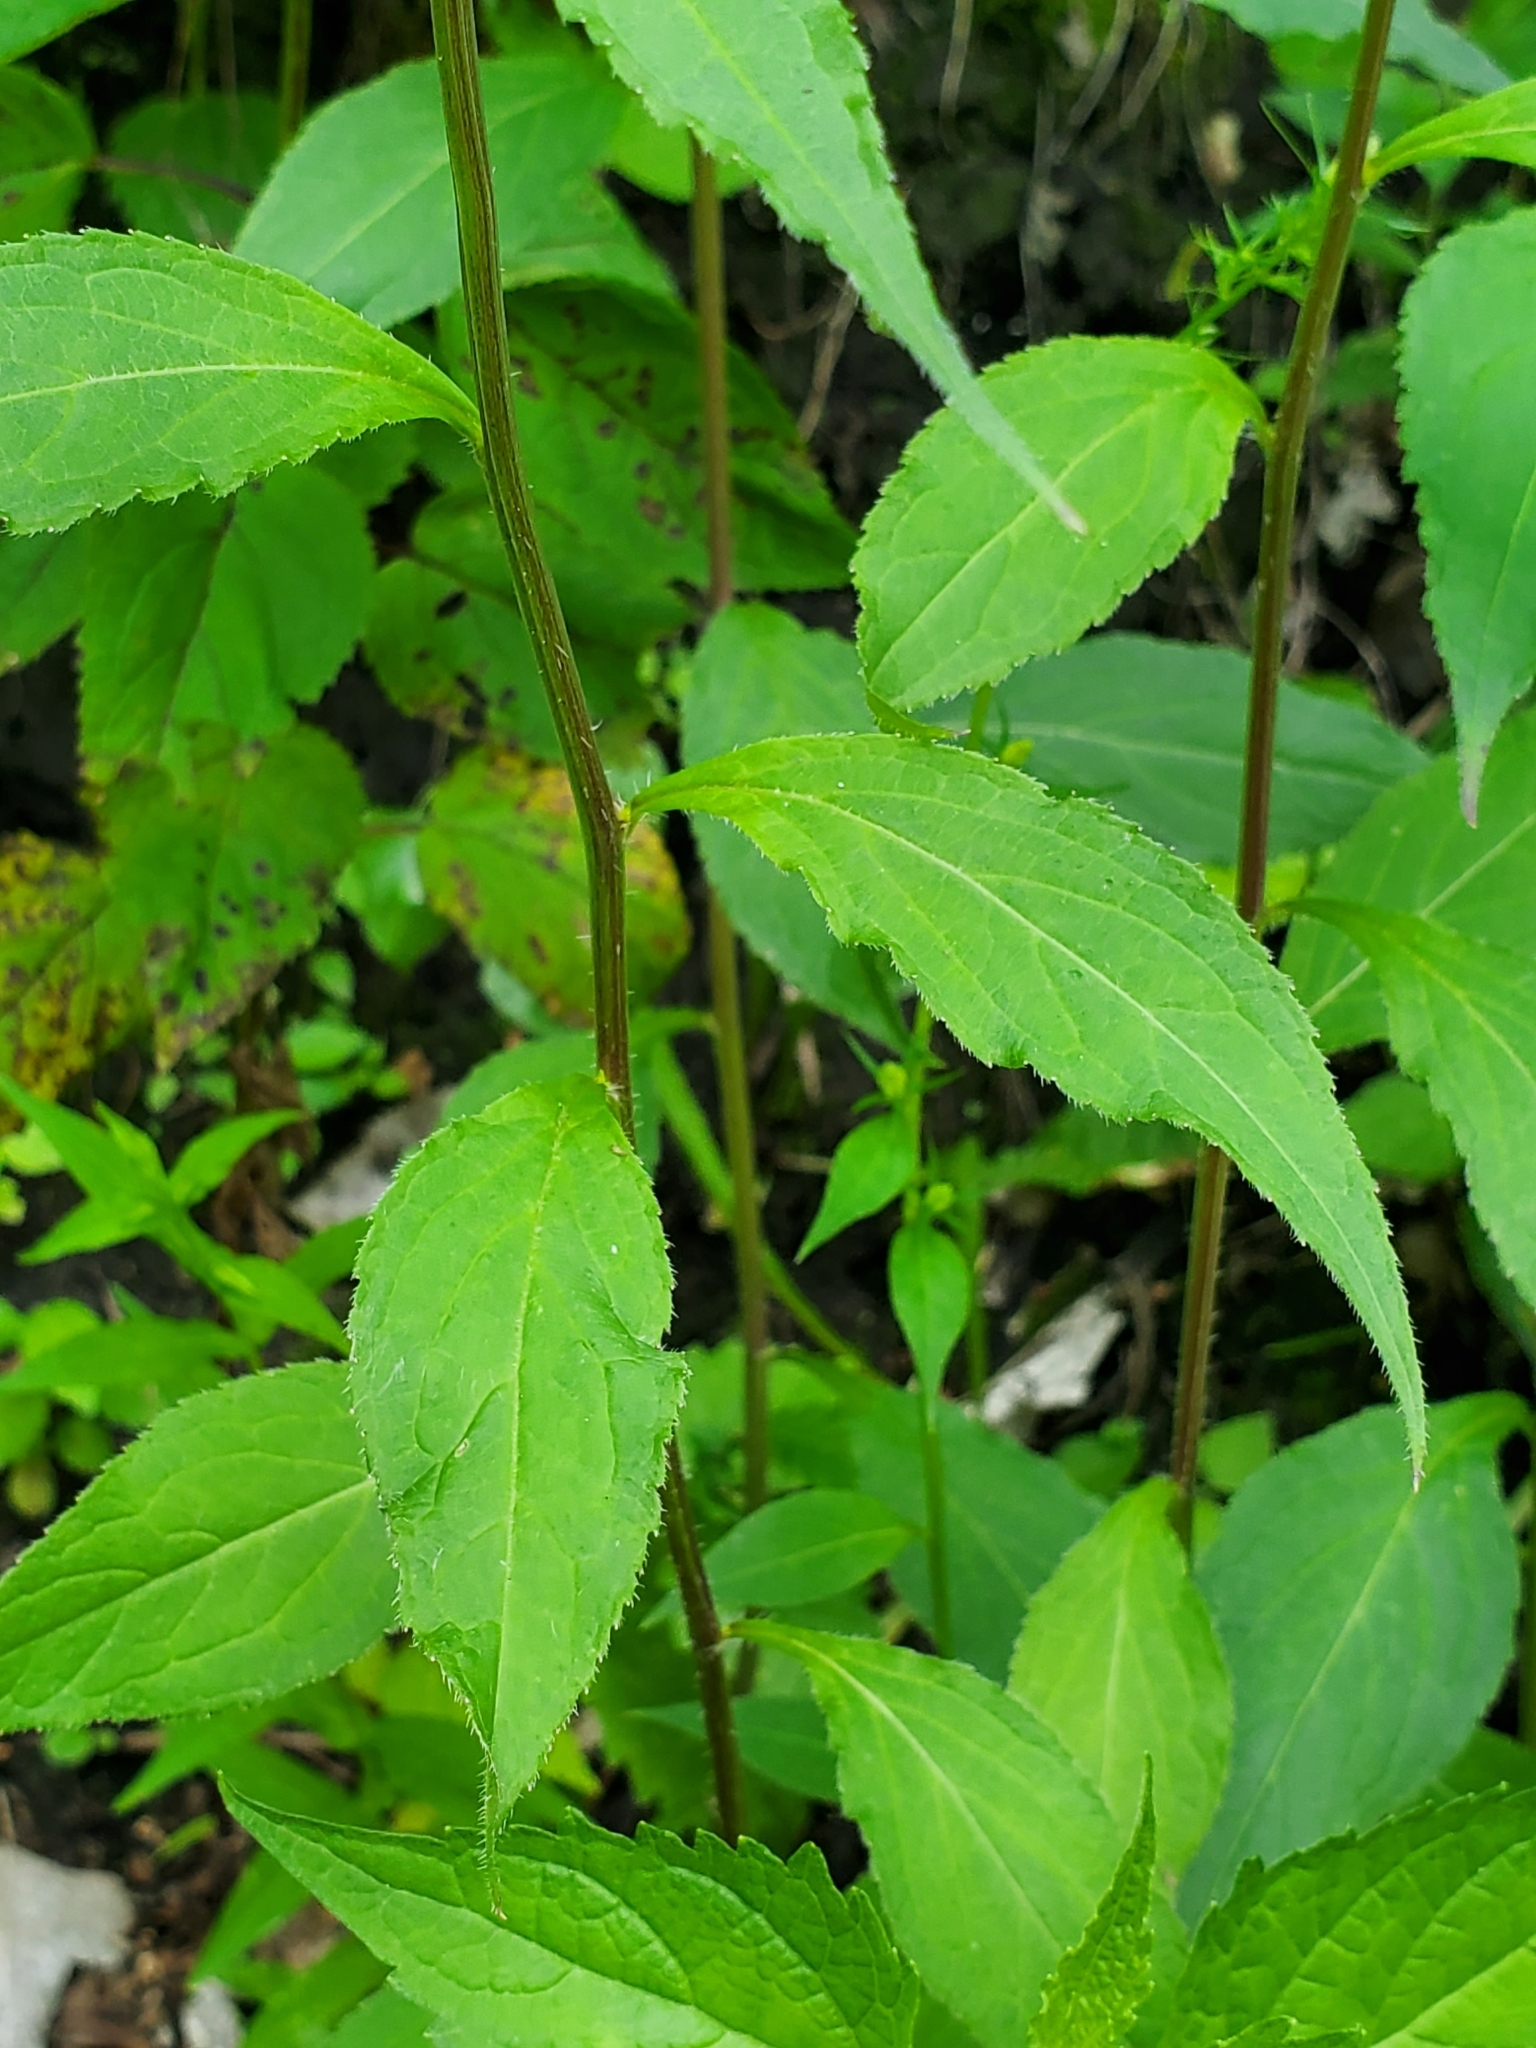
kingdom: Plantae
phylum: Tracheophyta
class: Magnoliopsida
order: Asterales
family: Campanulaceae
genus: Campanulastrum
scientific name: Campanulastrum americanum
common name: American bellflower
